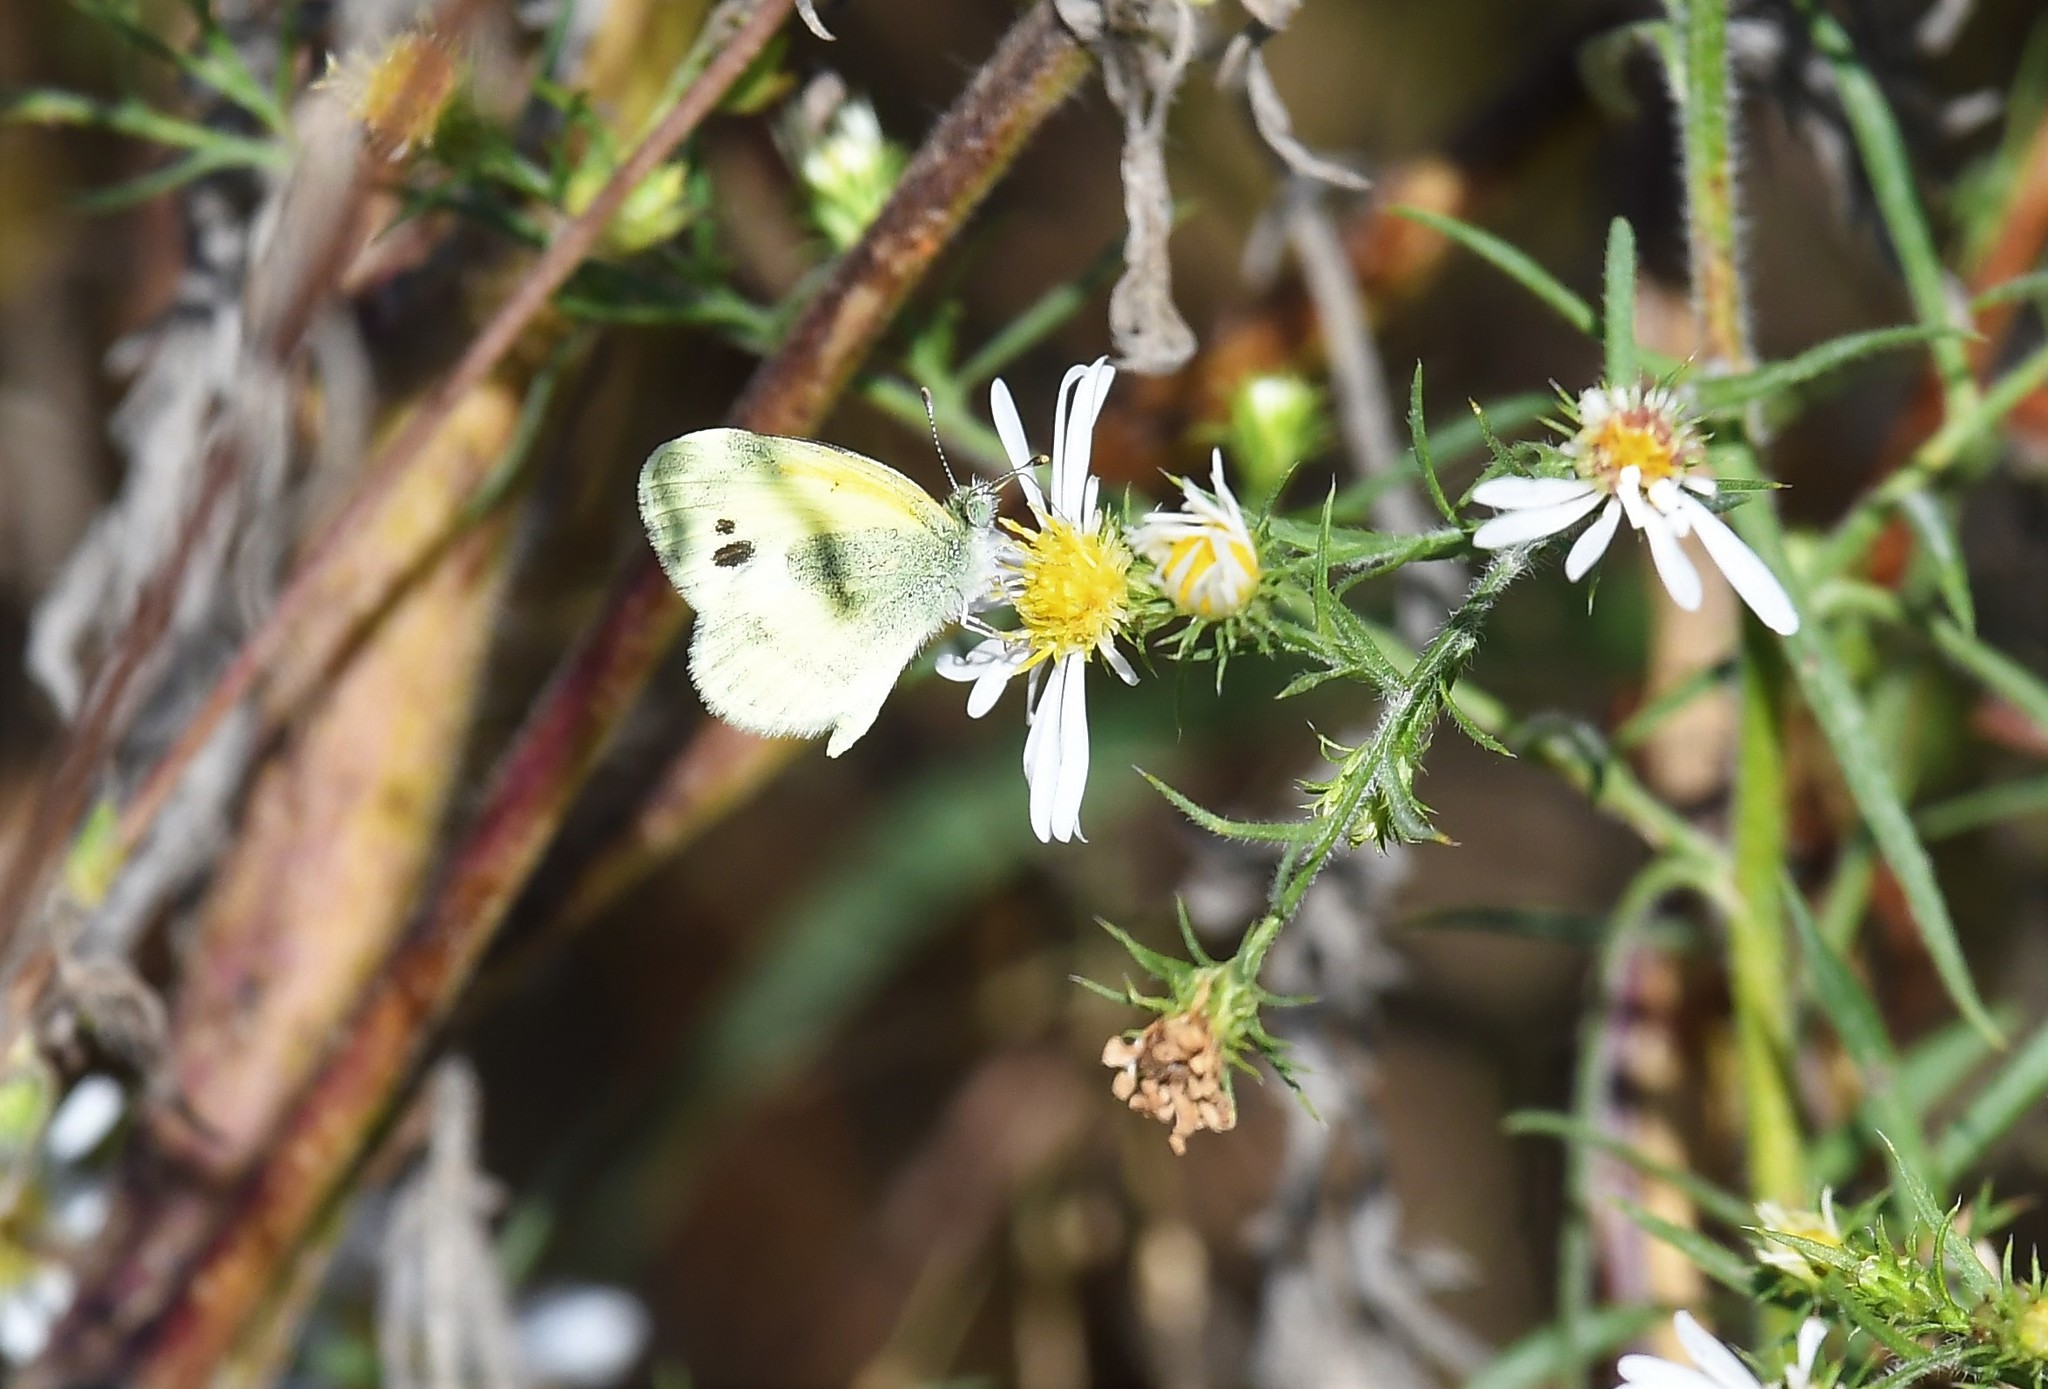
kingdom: Animalia
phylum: Arthropoda
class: Insecta
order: Lepidoptera
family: Pieridae
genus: Nathalis
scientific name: Nathalis iole
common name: Dainty sulphur
